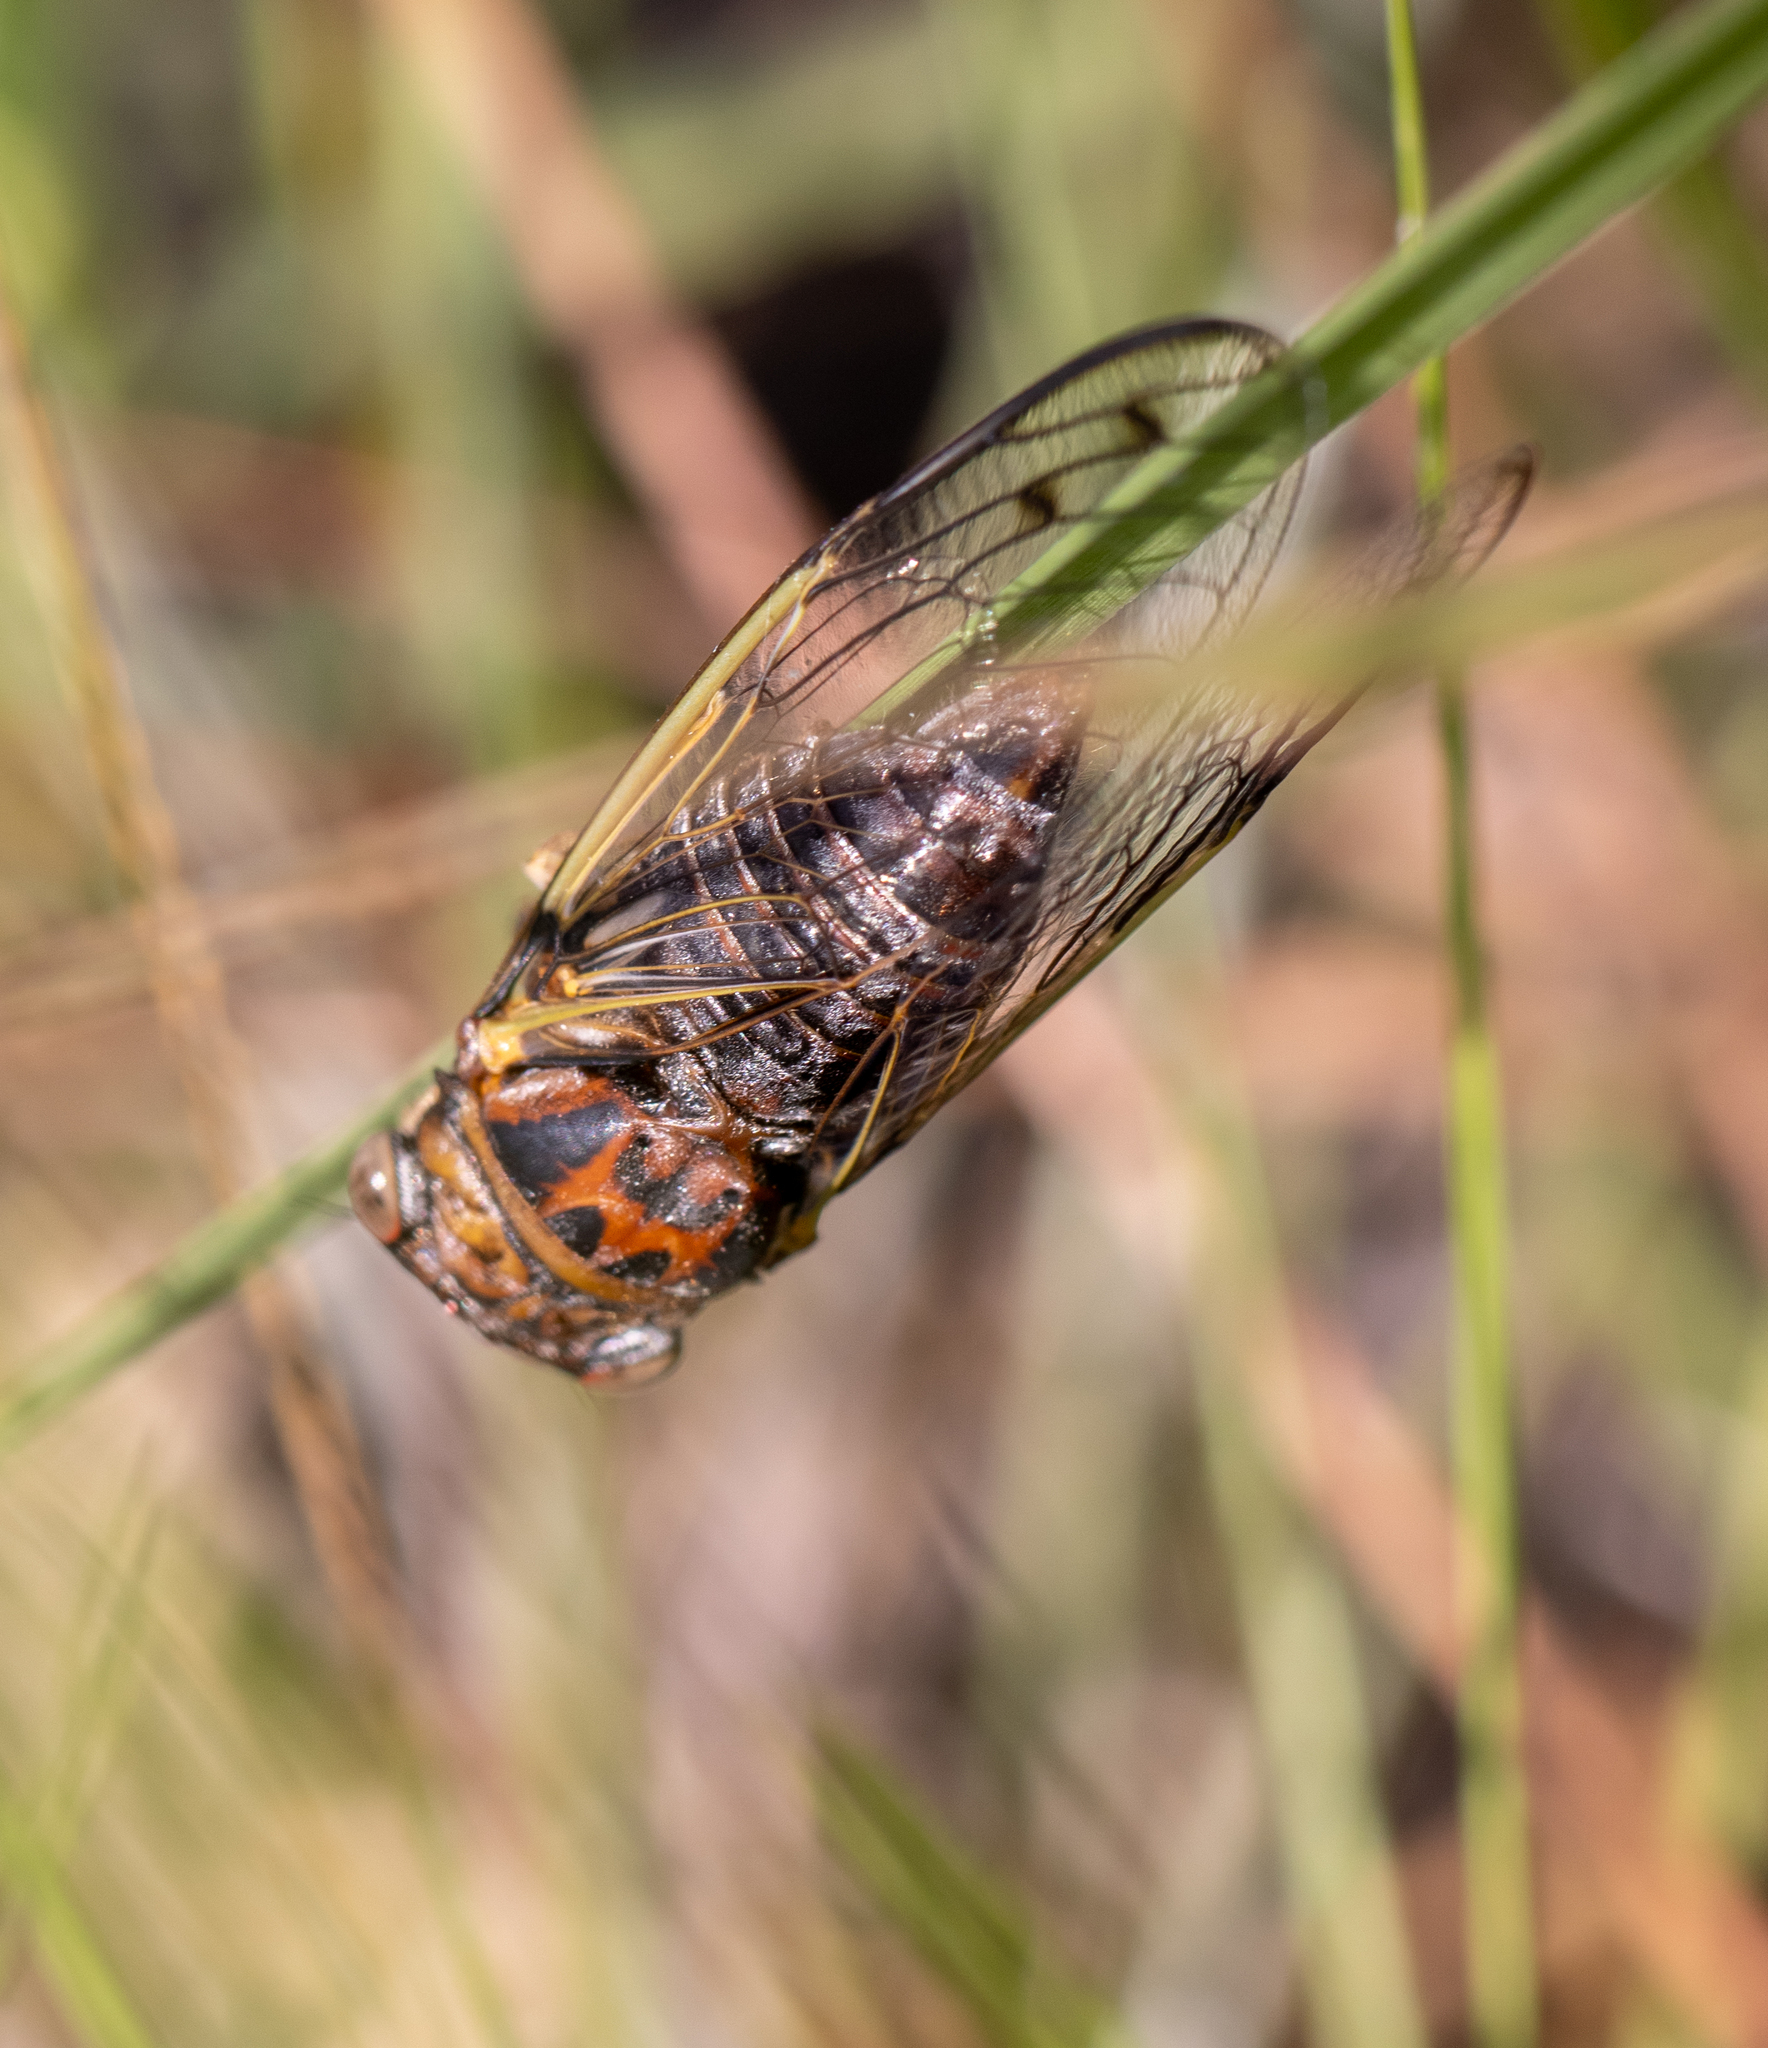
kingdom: Animalia
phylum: Arthropoda
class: Insecta
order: Hemiptera
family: Cicadidae
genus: Diceroprocta
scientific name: Diceroprocta olympusa
